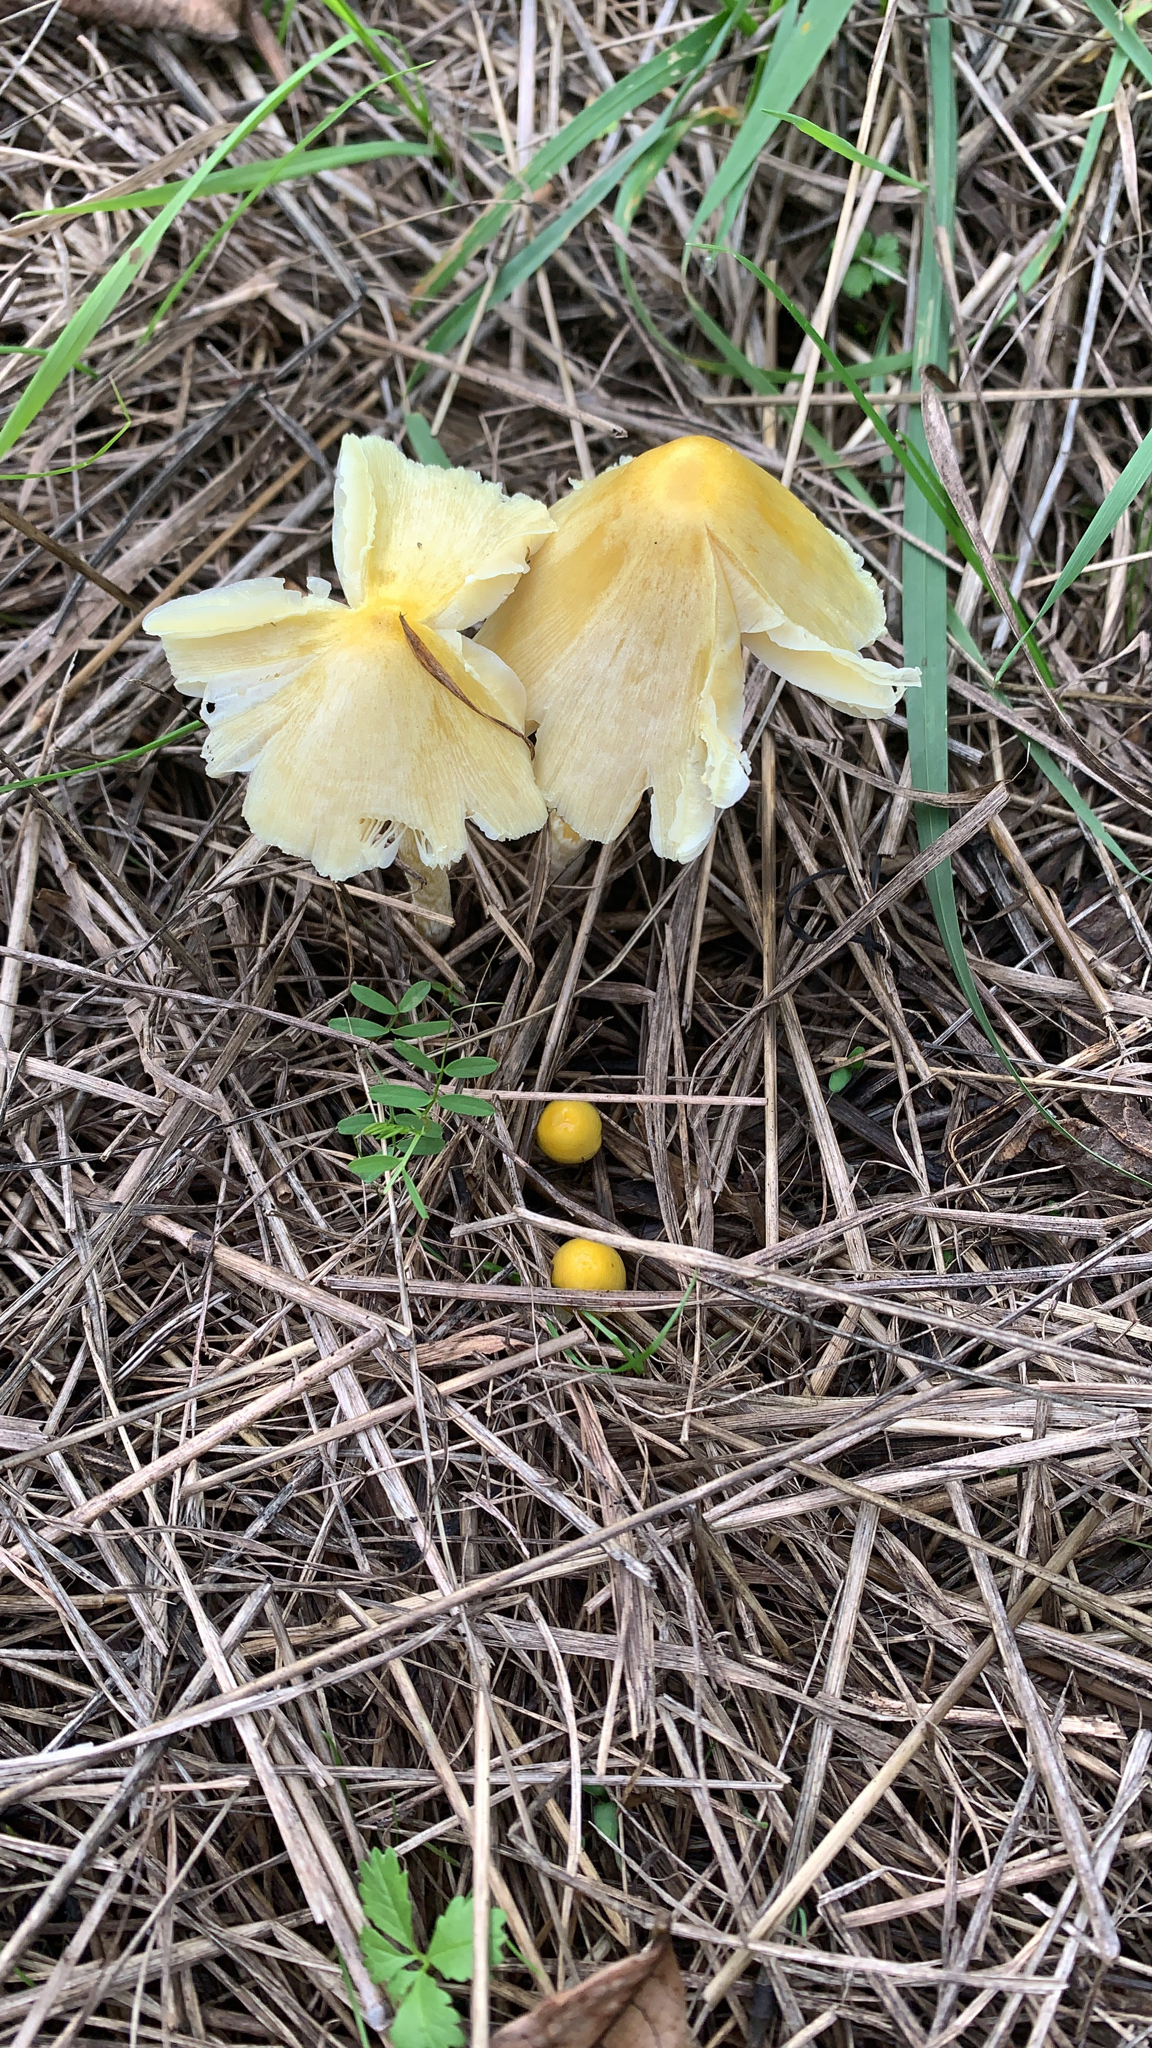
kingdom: Fungi
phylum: Basidiomycota
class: Agaricomycetes
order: Agaricales
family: Bolbitiaceae
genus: Bolbitius
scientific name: Bolbitius titubans
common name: Yellow fieldcap
